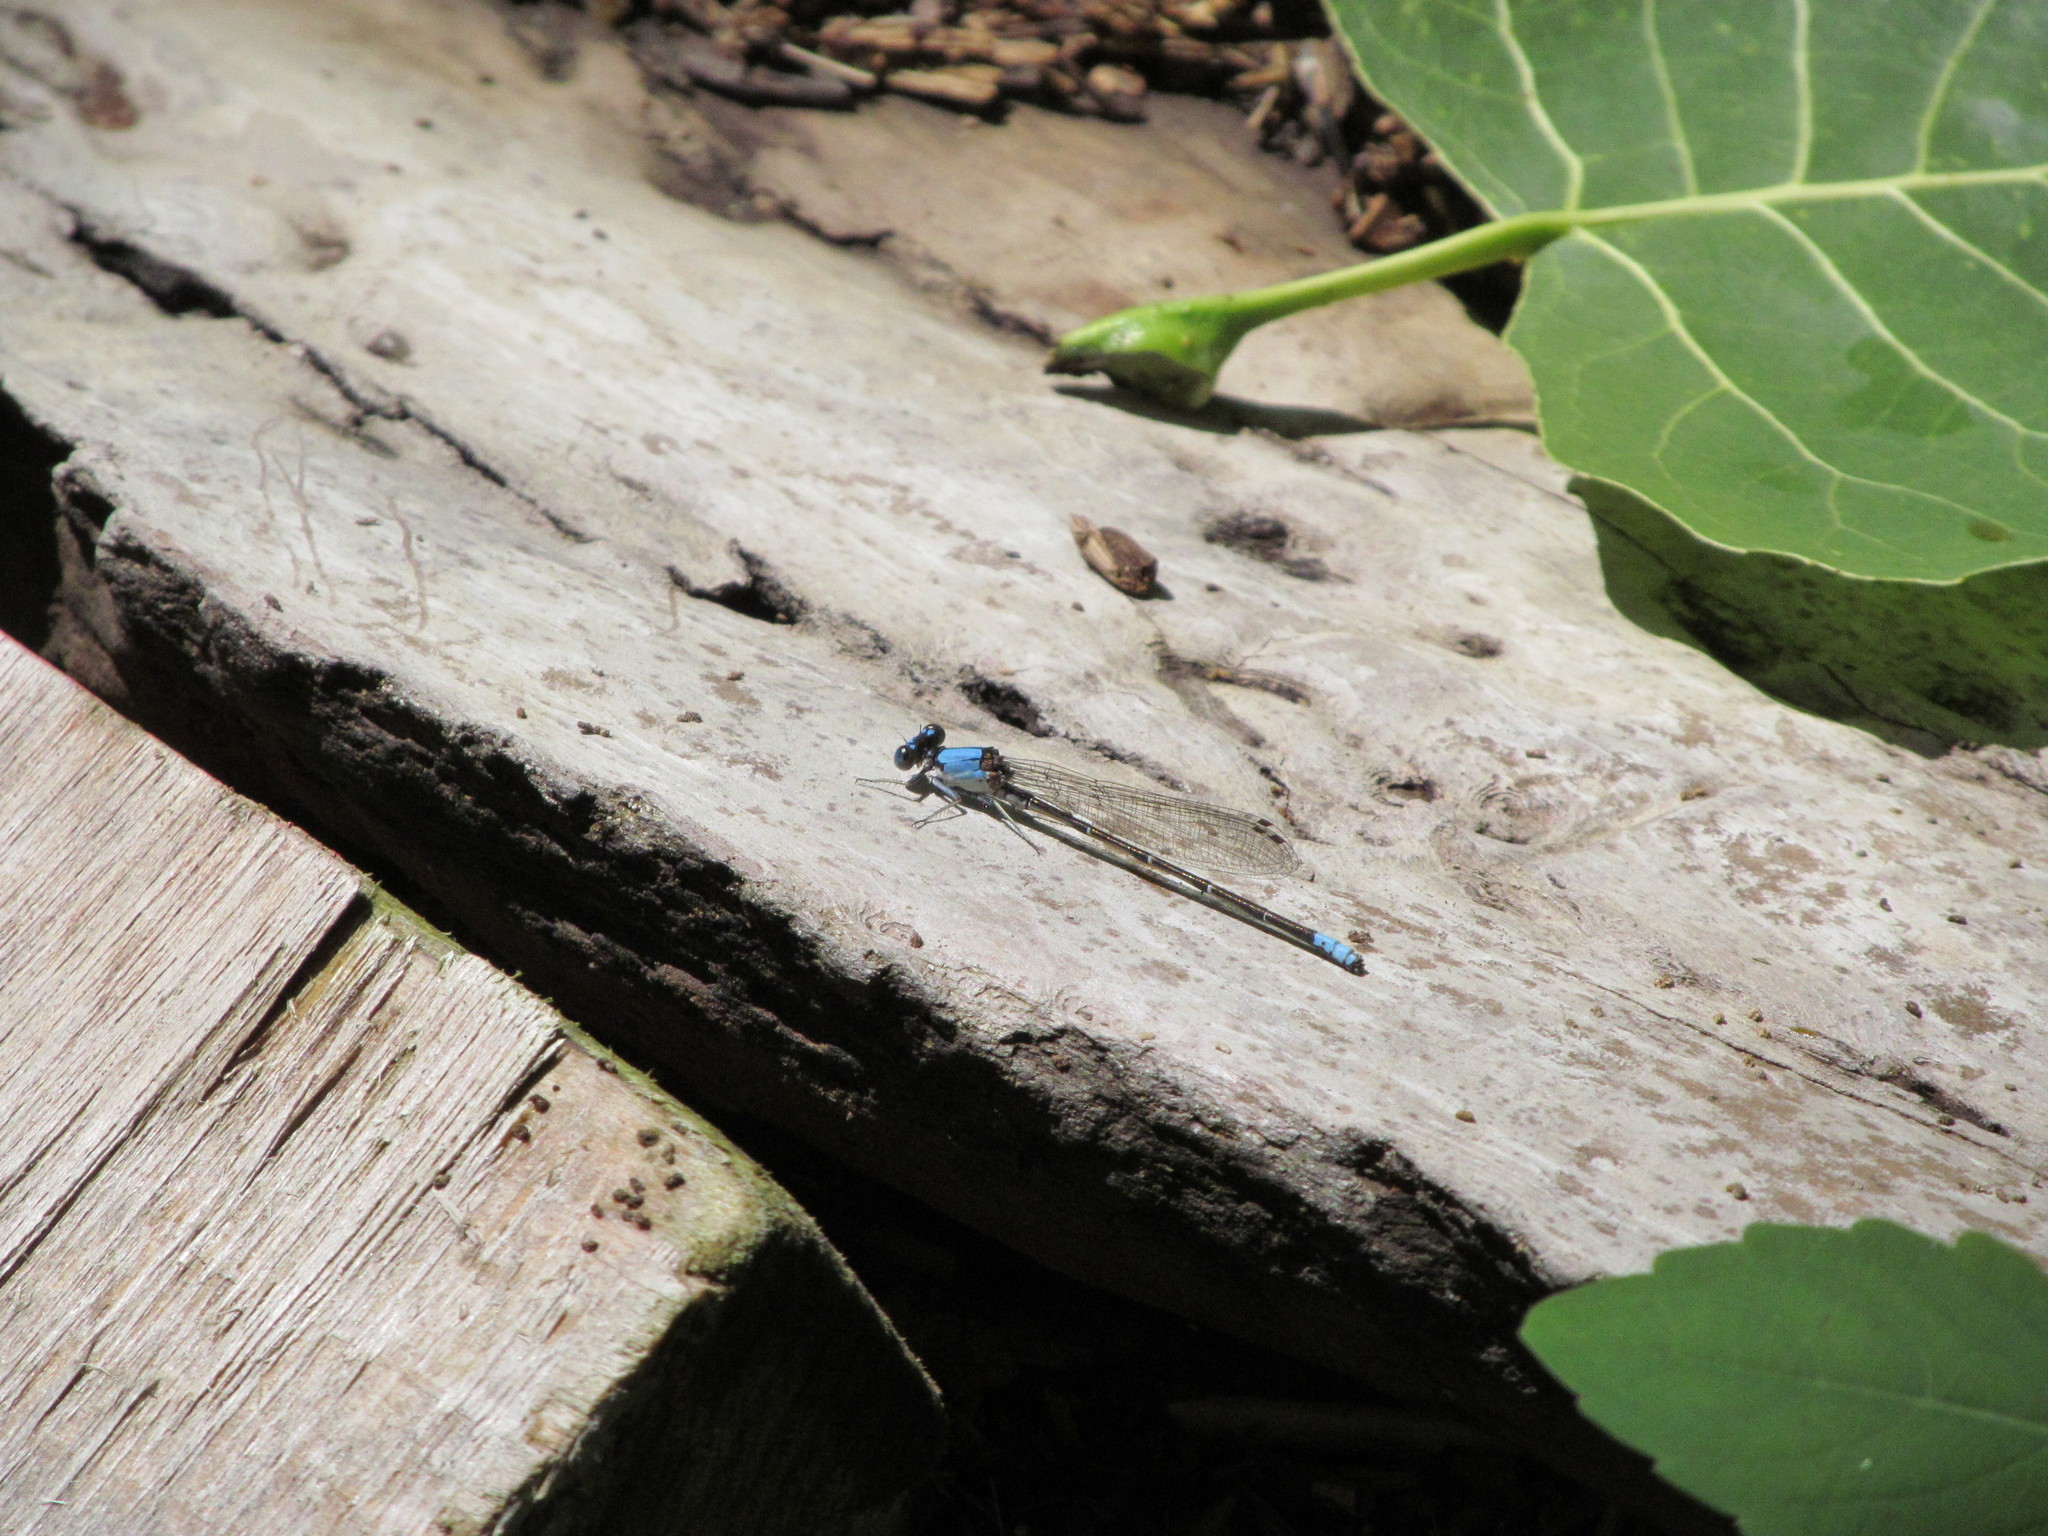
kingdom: Animalia
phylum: Arthropoda
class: Insecta
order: Odonata
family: Coenagrionidae
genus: Argia
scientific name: Argia apicalis
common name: Blue-fronted dancer
